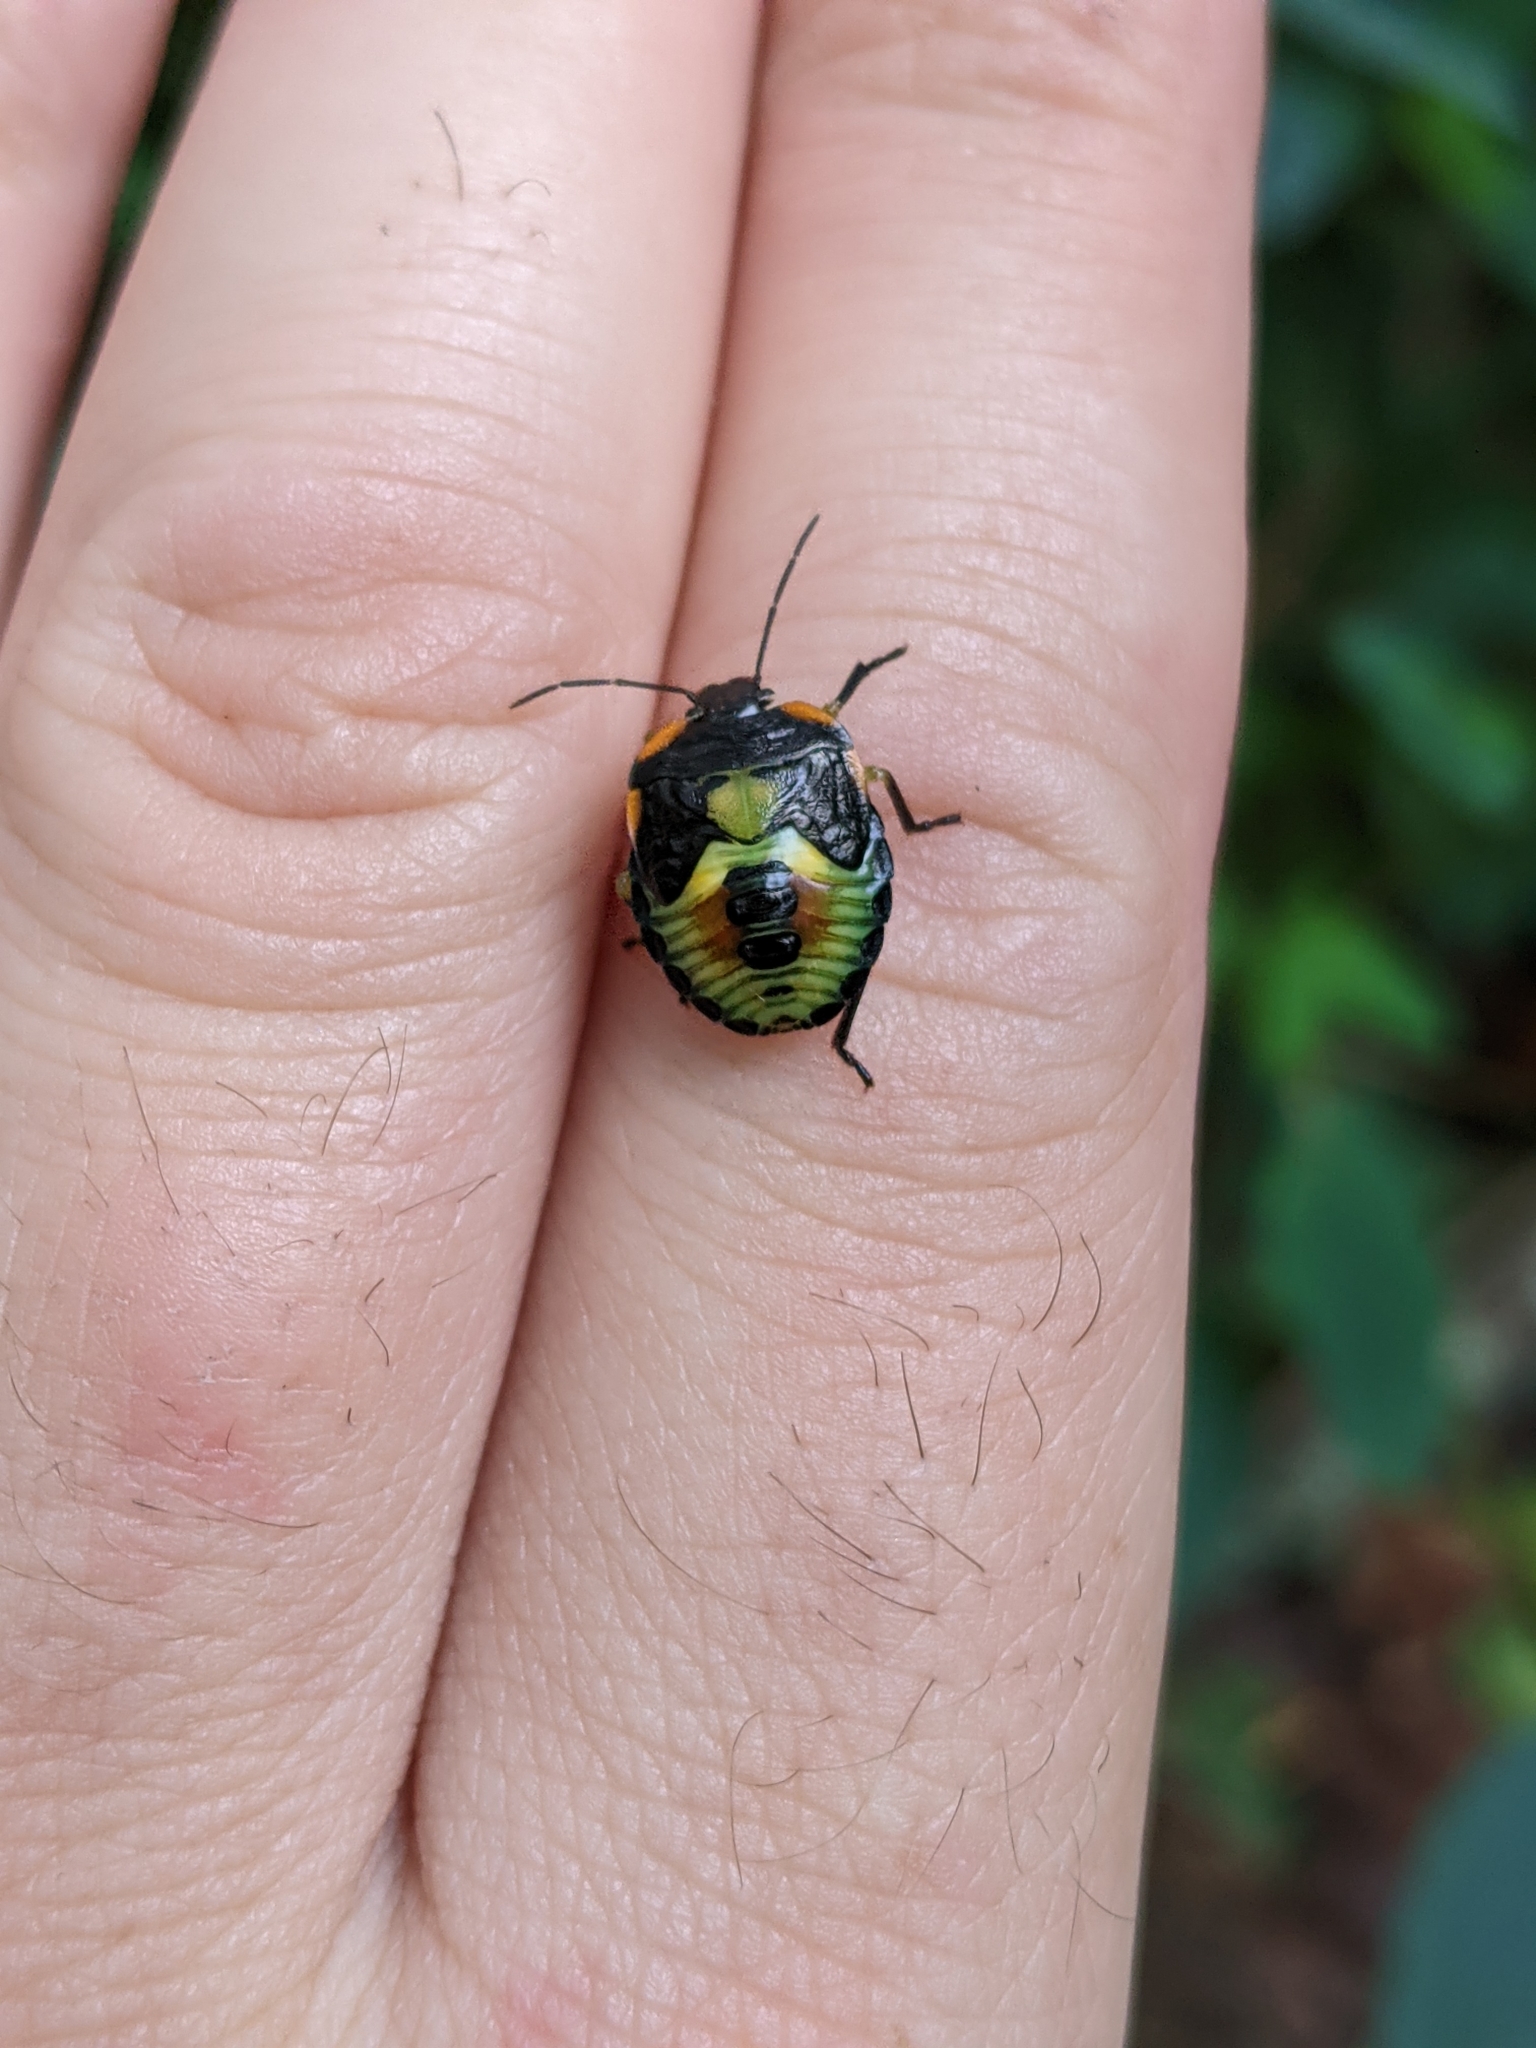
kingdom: Animalia
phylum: Arthropoda
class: Insecta
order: Hemiptera
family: Pentatomidae
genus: Chinavia
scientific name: Chinavia hilaris
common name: Green stink bug
